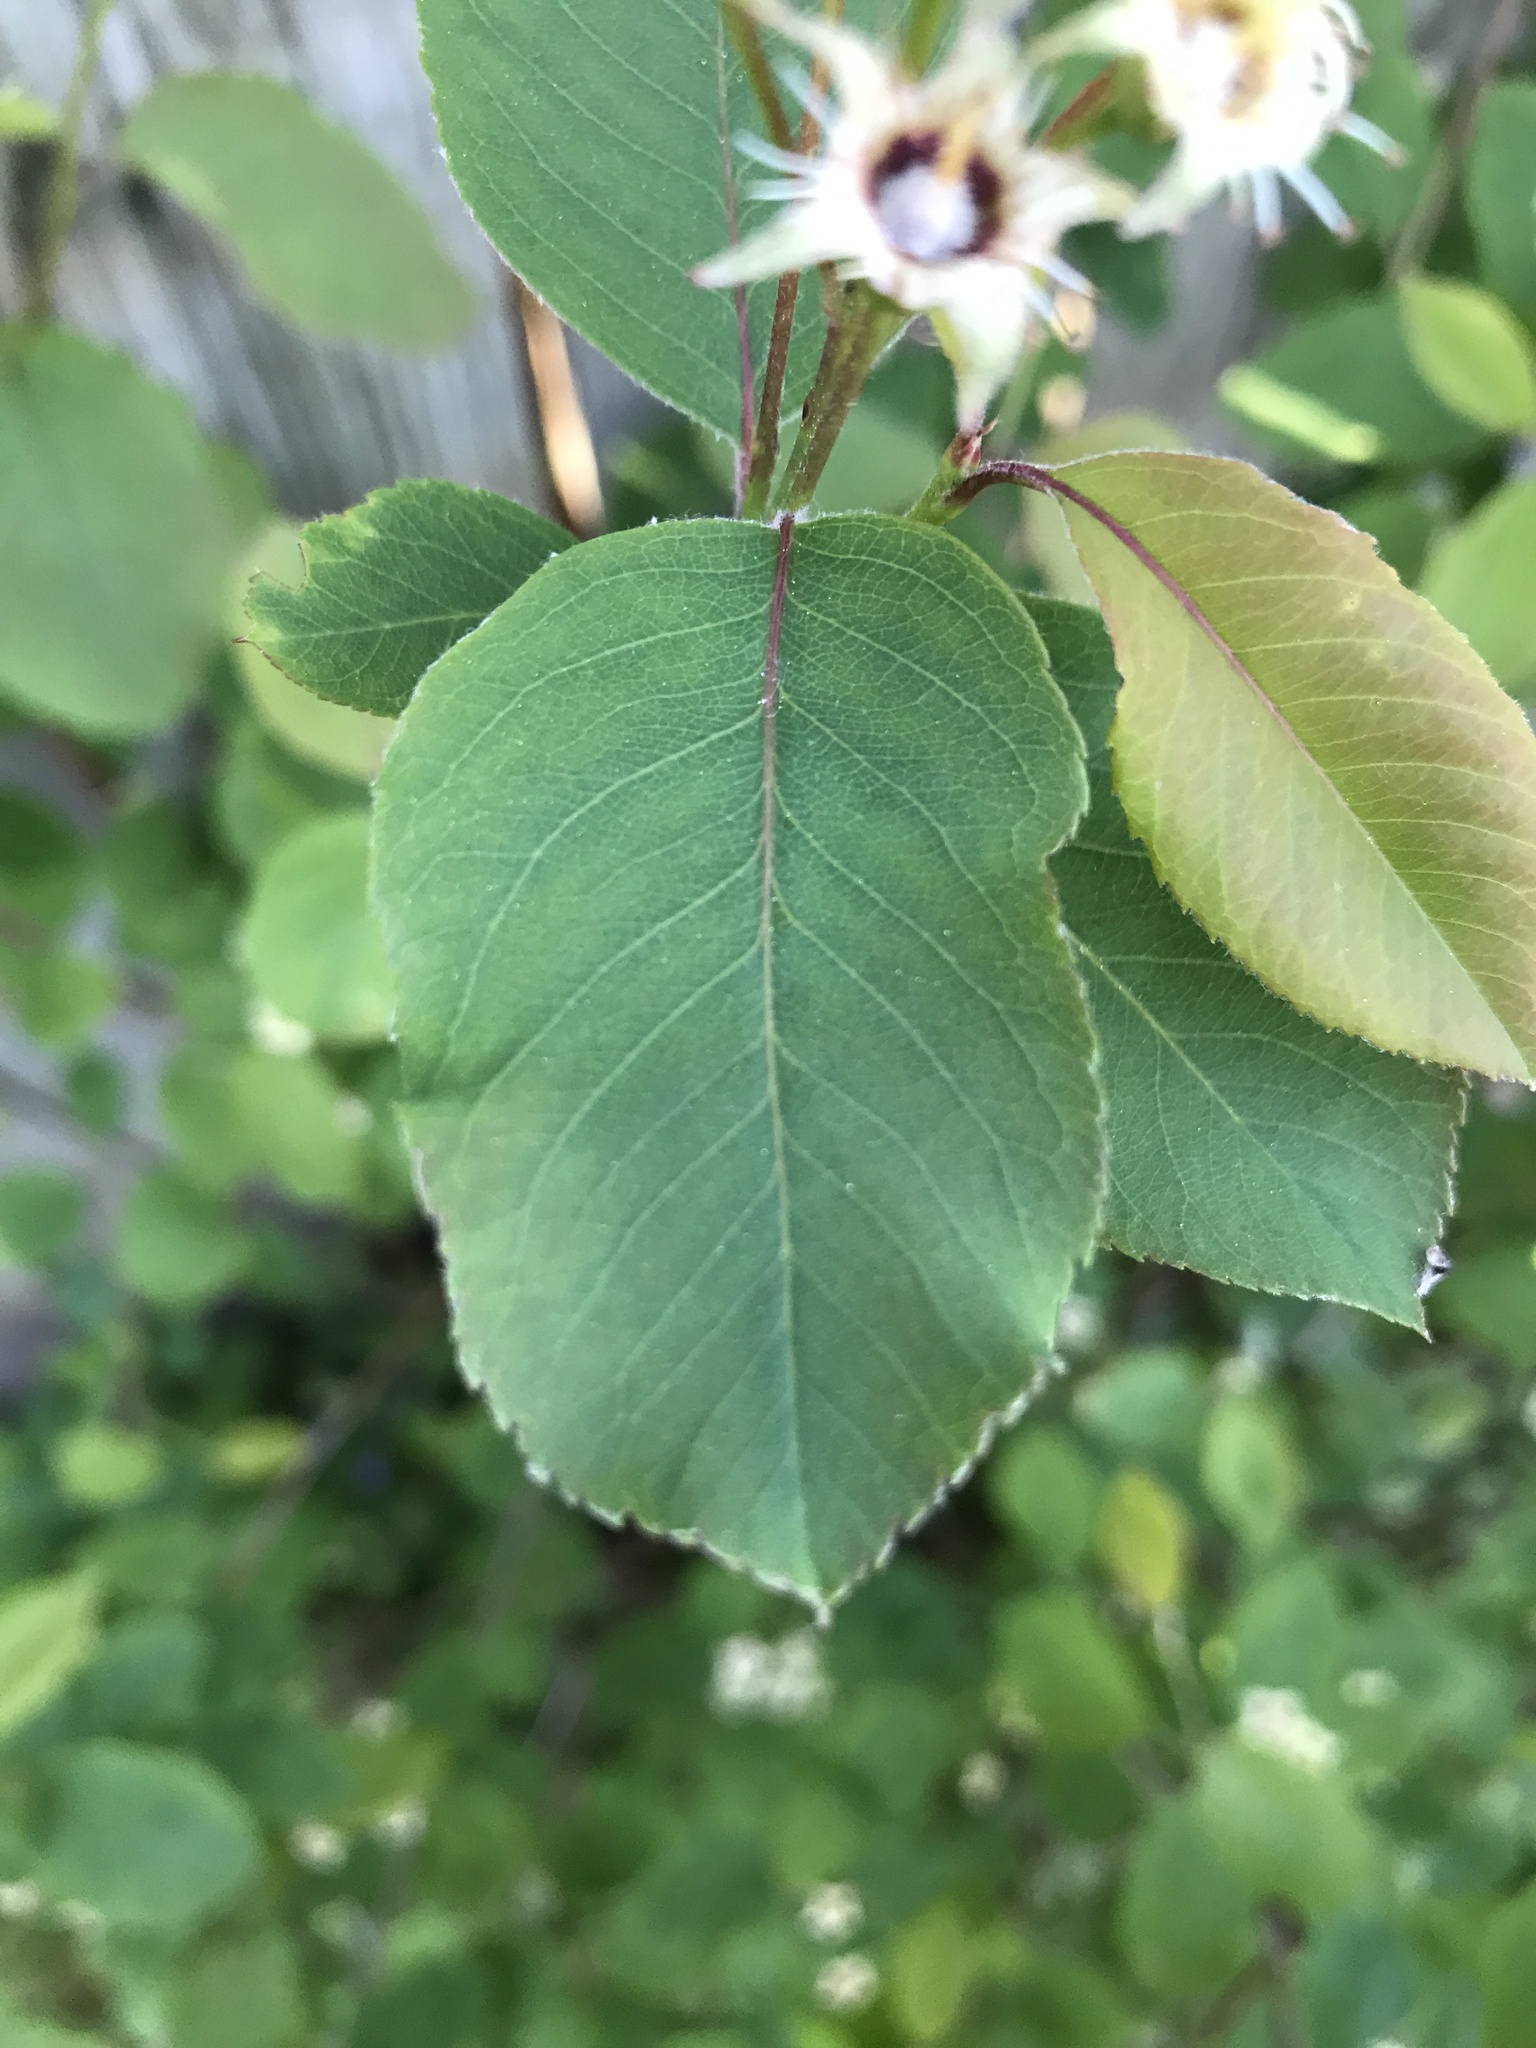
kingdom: Plantae
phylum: Tracheophyta
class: Magnoliopsida
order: Rosales
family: Rosaceae
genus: Amelanchier
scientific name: Amelanchier laevis
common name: Allegheny serviceberry
